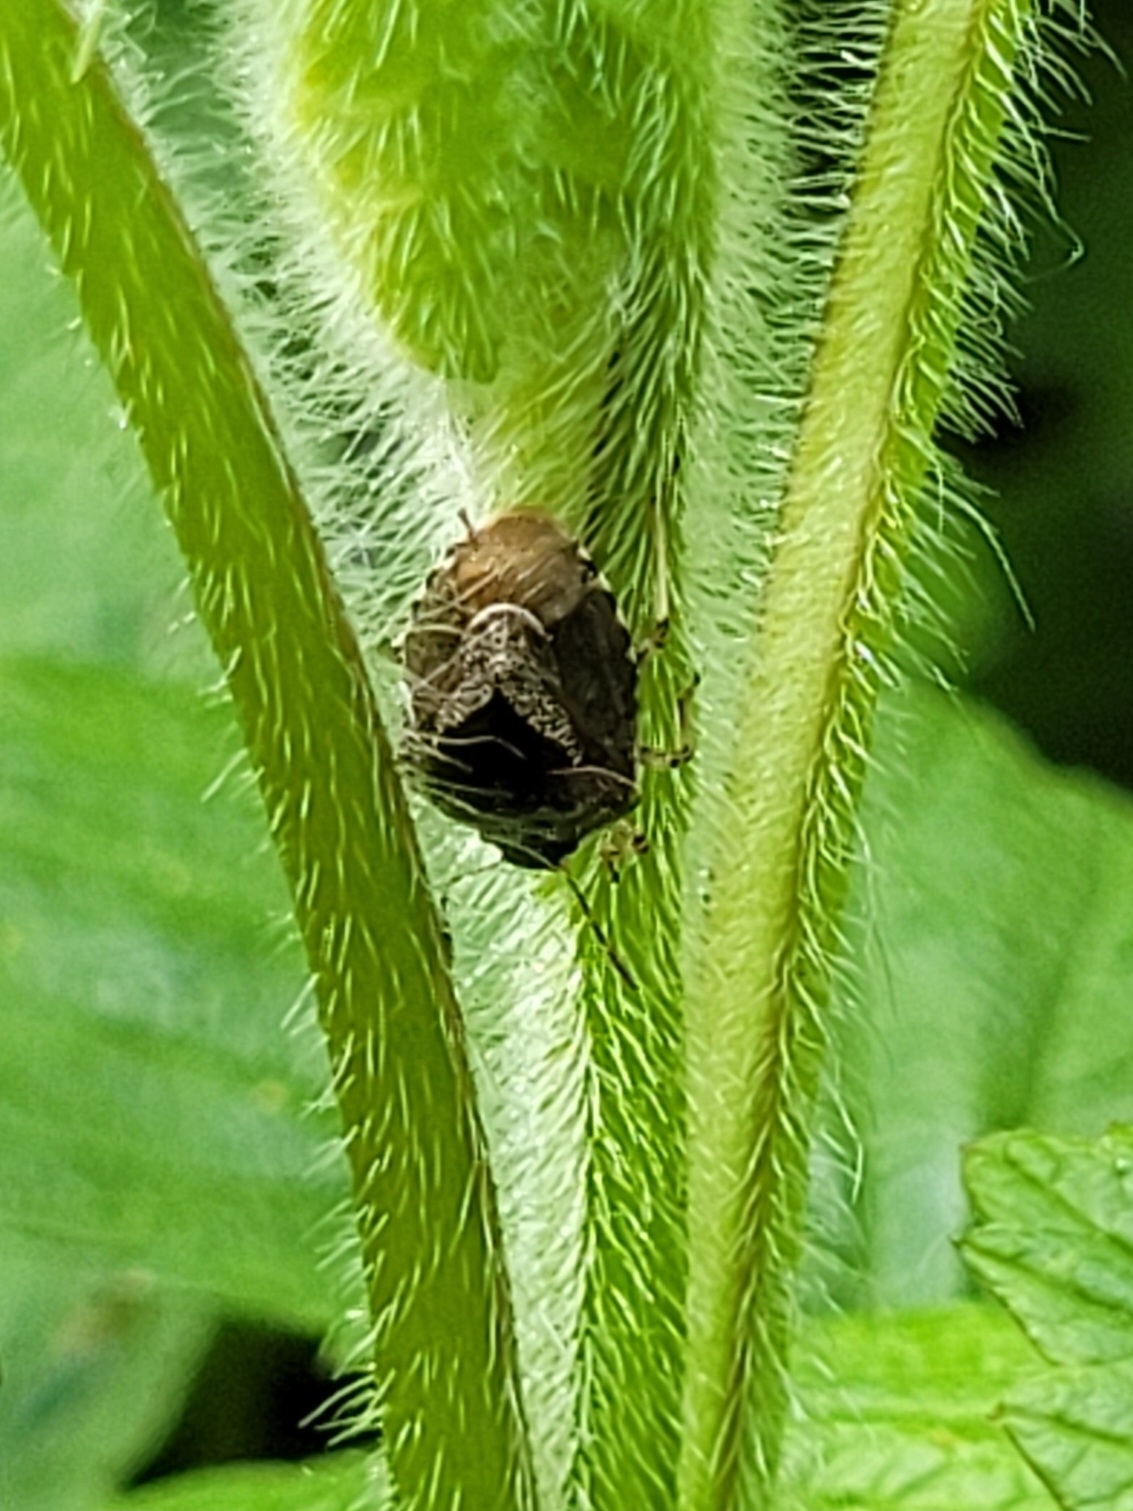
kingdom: Animalia
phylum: Arthropoda
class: Insecta
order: Hemiptera
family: Pentatomidae
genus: Eysarcoris
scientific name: Eysarcoris venustissimus
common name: Woundwort shieldbug
